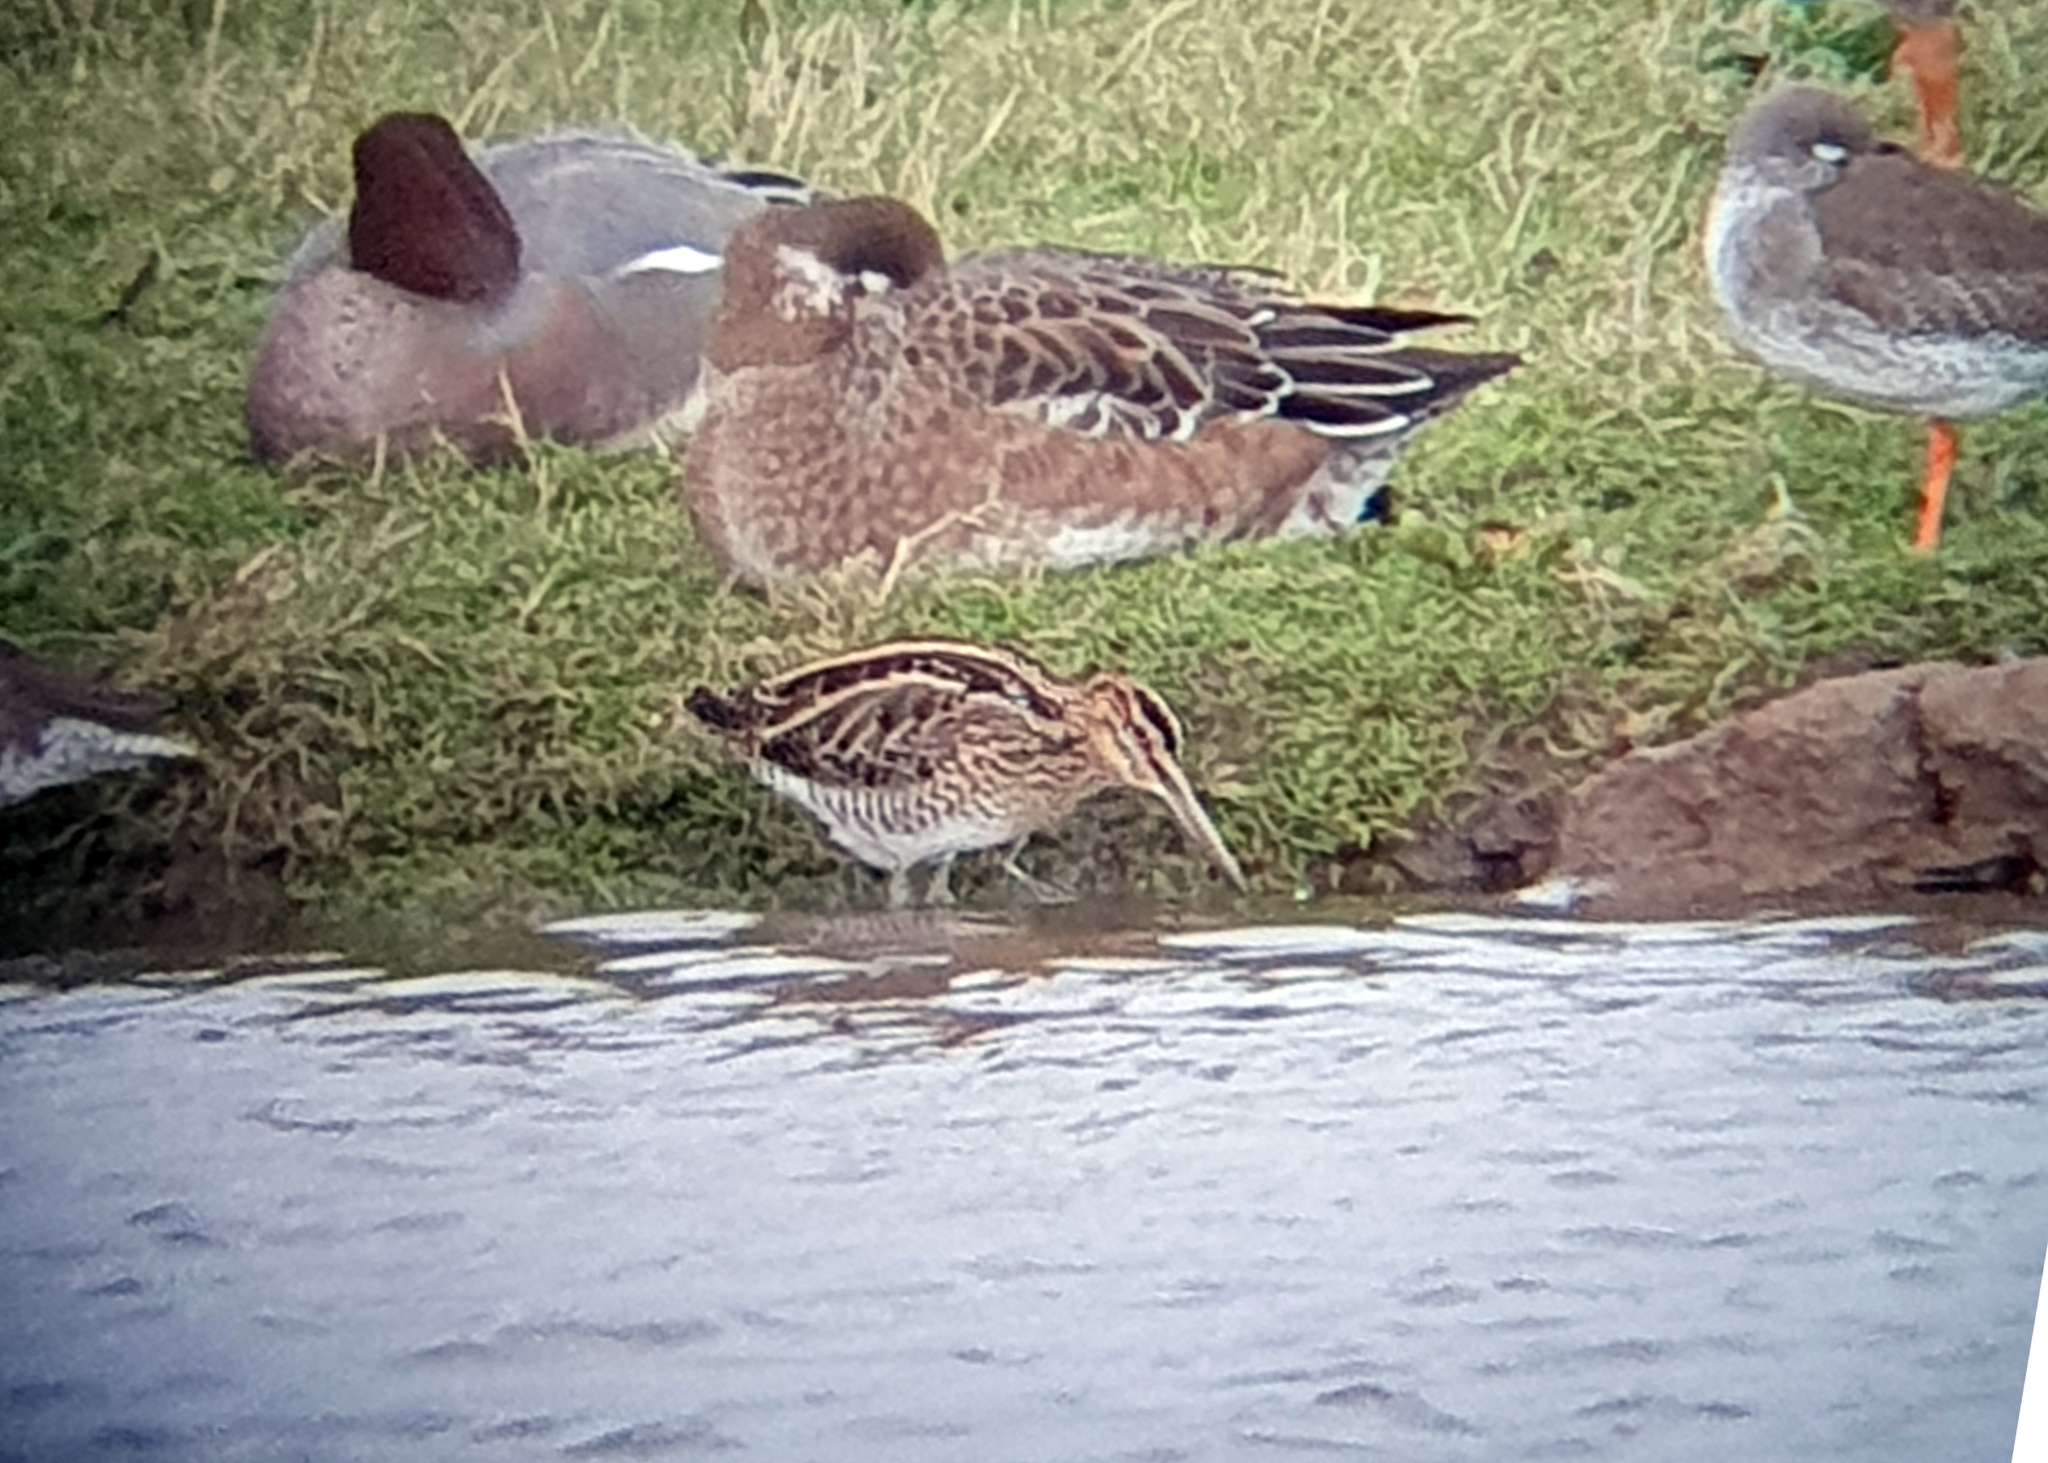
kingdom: Animalia
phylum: Chordata
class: Aves
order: Charadriiformes
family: Scolopacidae
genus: Gallinago
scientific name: Gallinago gallinago
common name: Common snipe
